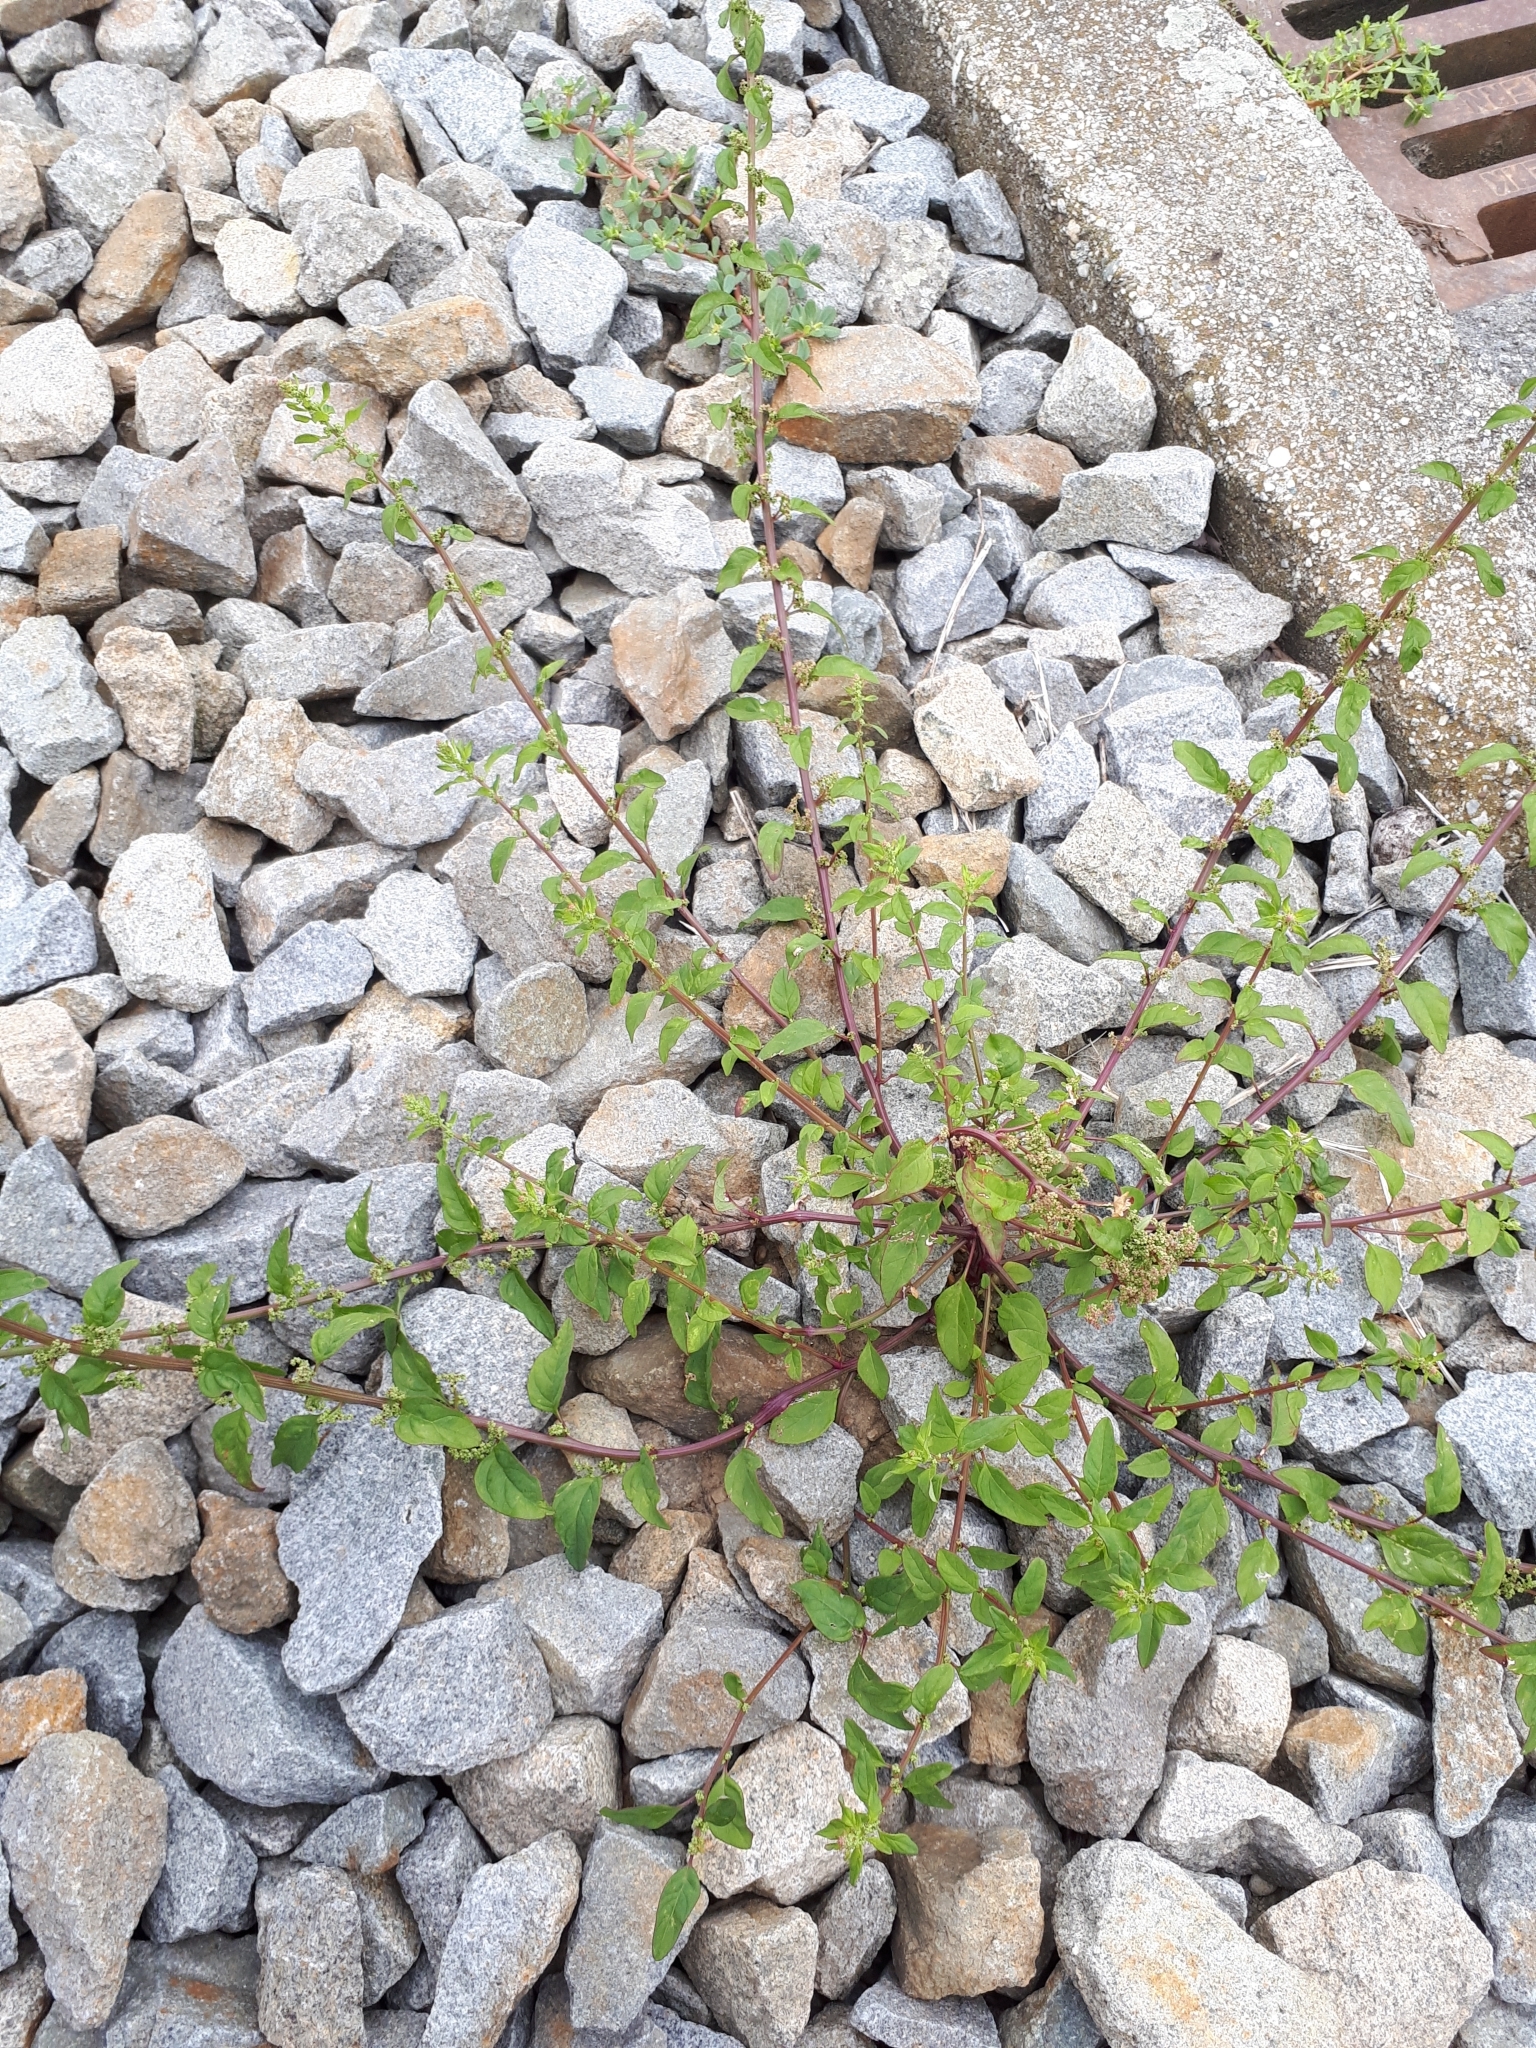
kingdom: Plantae
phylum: Tracheophyta
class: Magnoliopsida
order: Caryophyllales
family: Amaranthaceae
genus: Lipandra
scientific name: Lipandra polysperma
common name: Many-seed goosefoot
